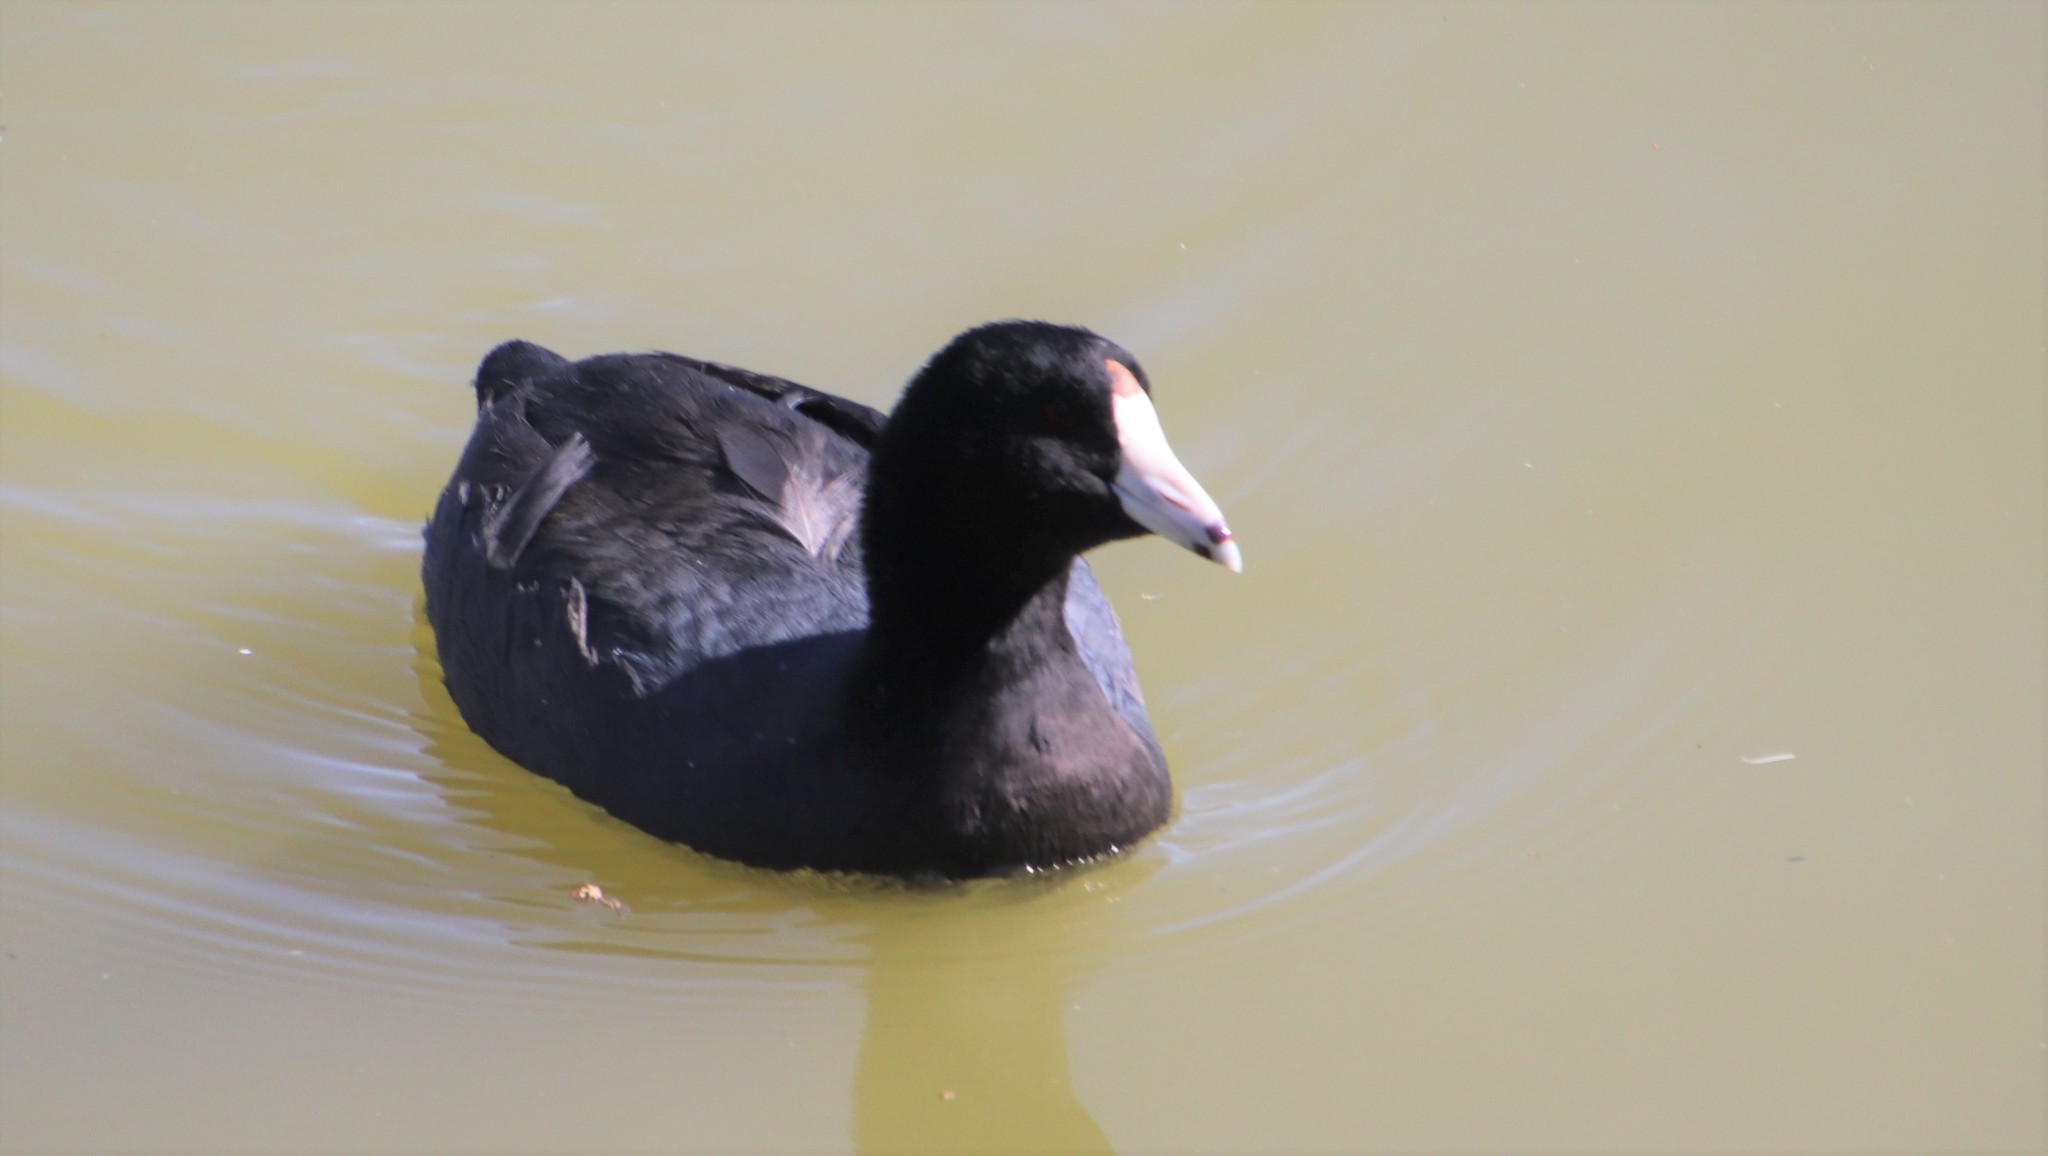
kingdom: Animalia
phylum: Chordata
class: Aves
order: Gruiformes
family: Rallidae
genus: Fulica
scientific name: Fulica americana
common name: American coot
